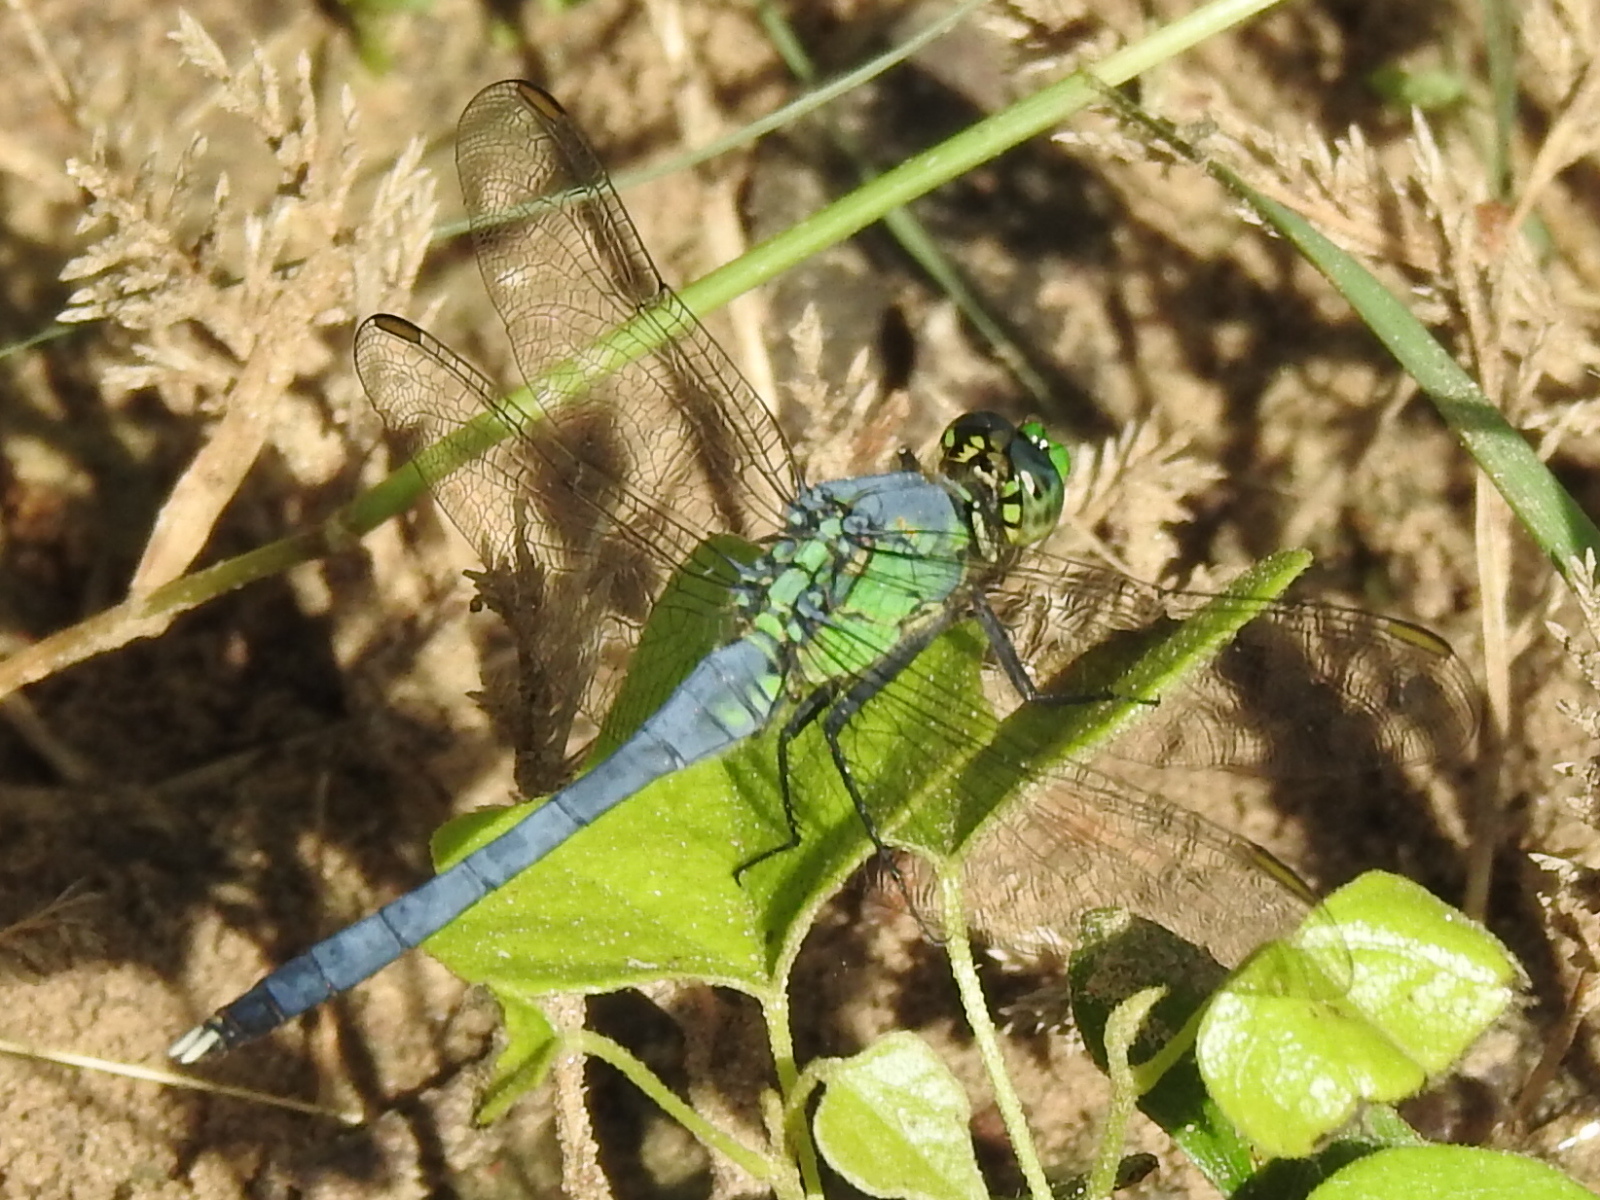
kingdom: Animalia
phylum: Arthropoda
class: Insecta
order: Odonata
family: Libellulidae
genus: Erythemis
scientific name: Erythemis simplicicollis
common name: Eastern pondhawk
